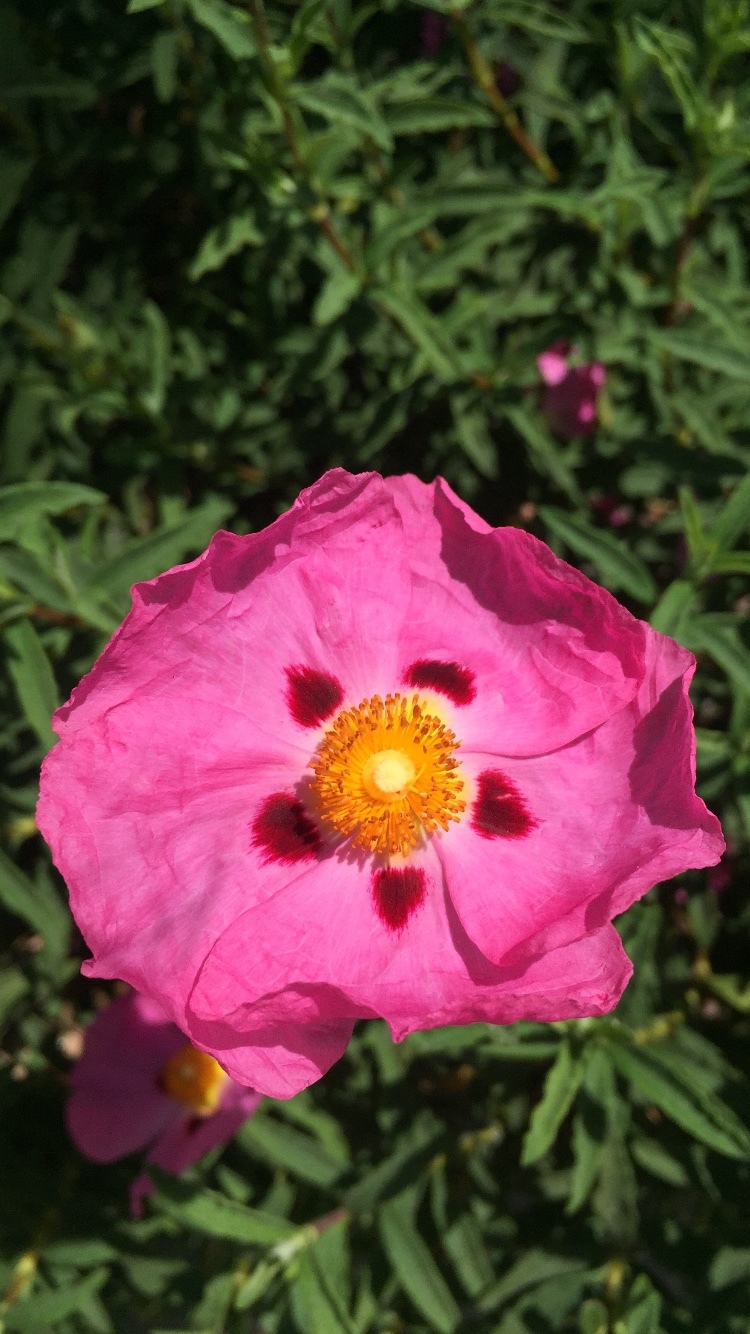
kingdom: Plantae
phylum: Tracheophyta
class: Magnoliopsida
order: Malvales
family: Cistaceae
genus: Cistus
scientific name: Cistus purpureus
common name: Purple cistus
